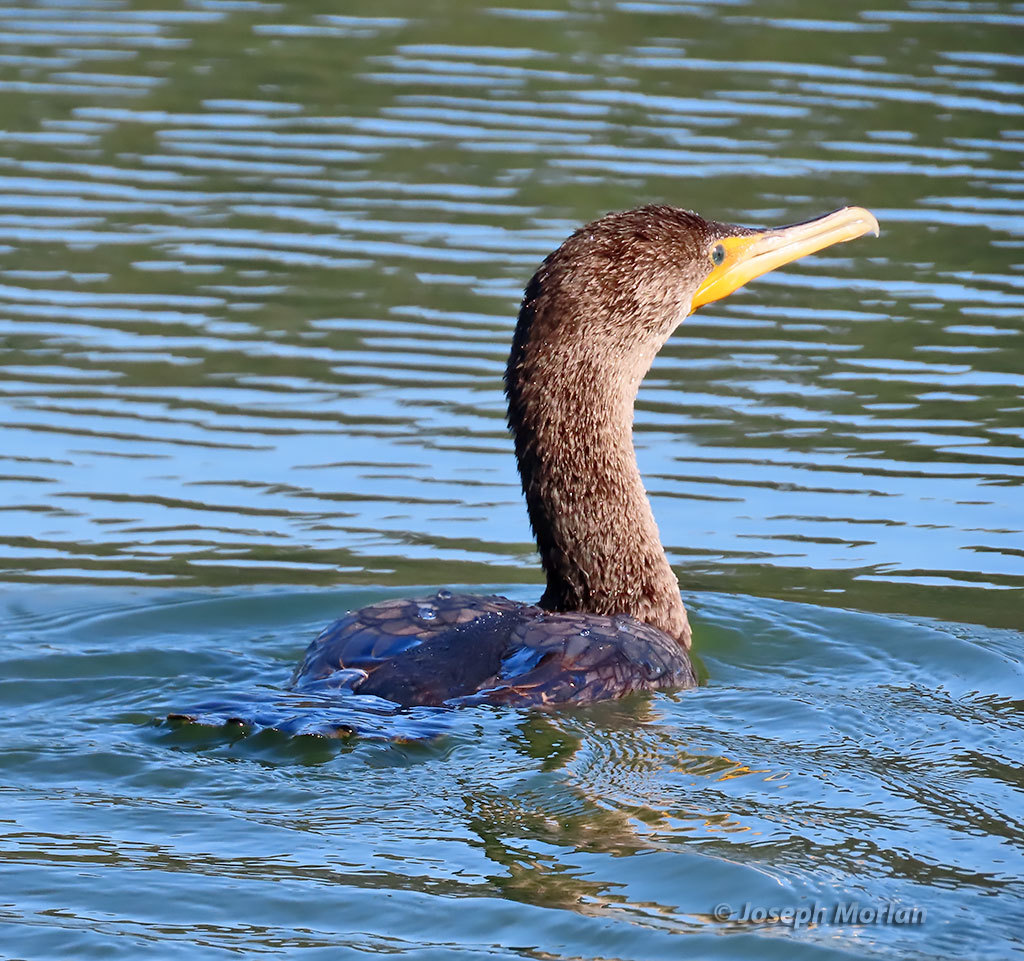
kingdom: Animalia
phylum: Chordata
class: Aves
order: Suliformes
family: Phalacrocoracidae
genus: Phalacrocorax
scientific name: Phalacrocorax auritus
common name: Double-crested cormorant
